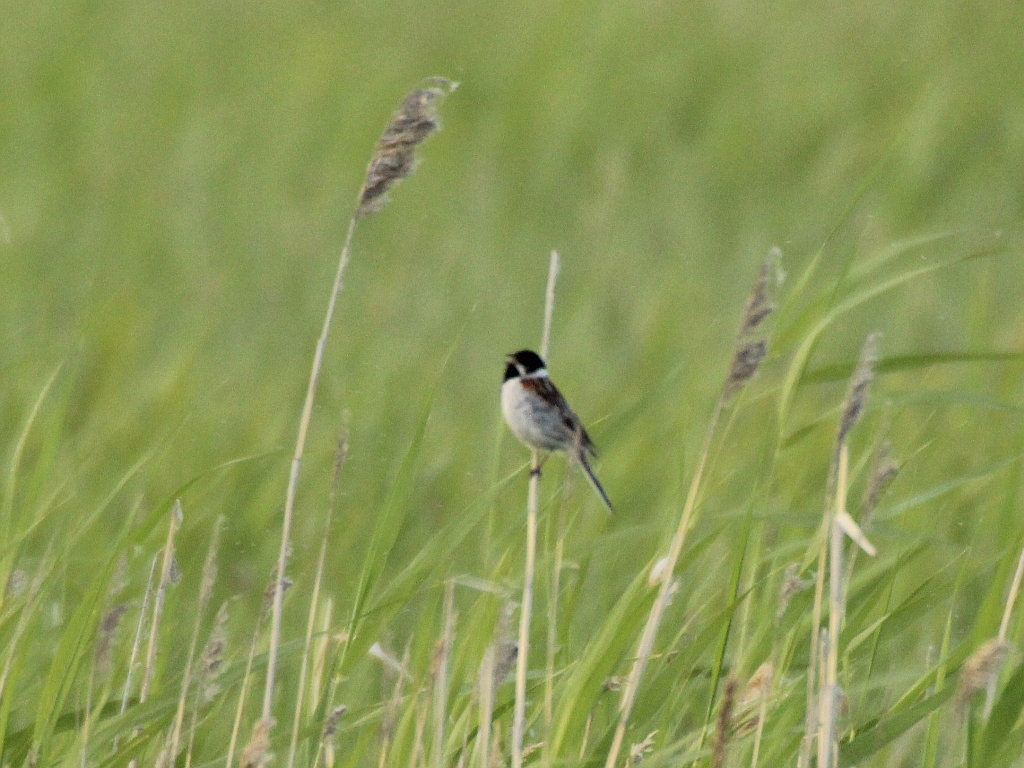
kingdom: Animalia
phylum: Chordata
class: Aves
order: Passeriformes
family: Emberizidae
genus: Emberiza
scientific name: Emberiza schoeniclus
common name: Reed bunting
